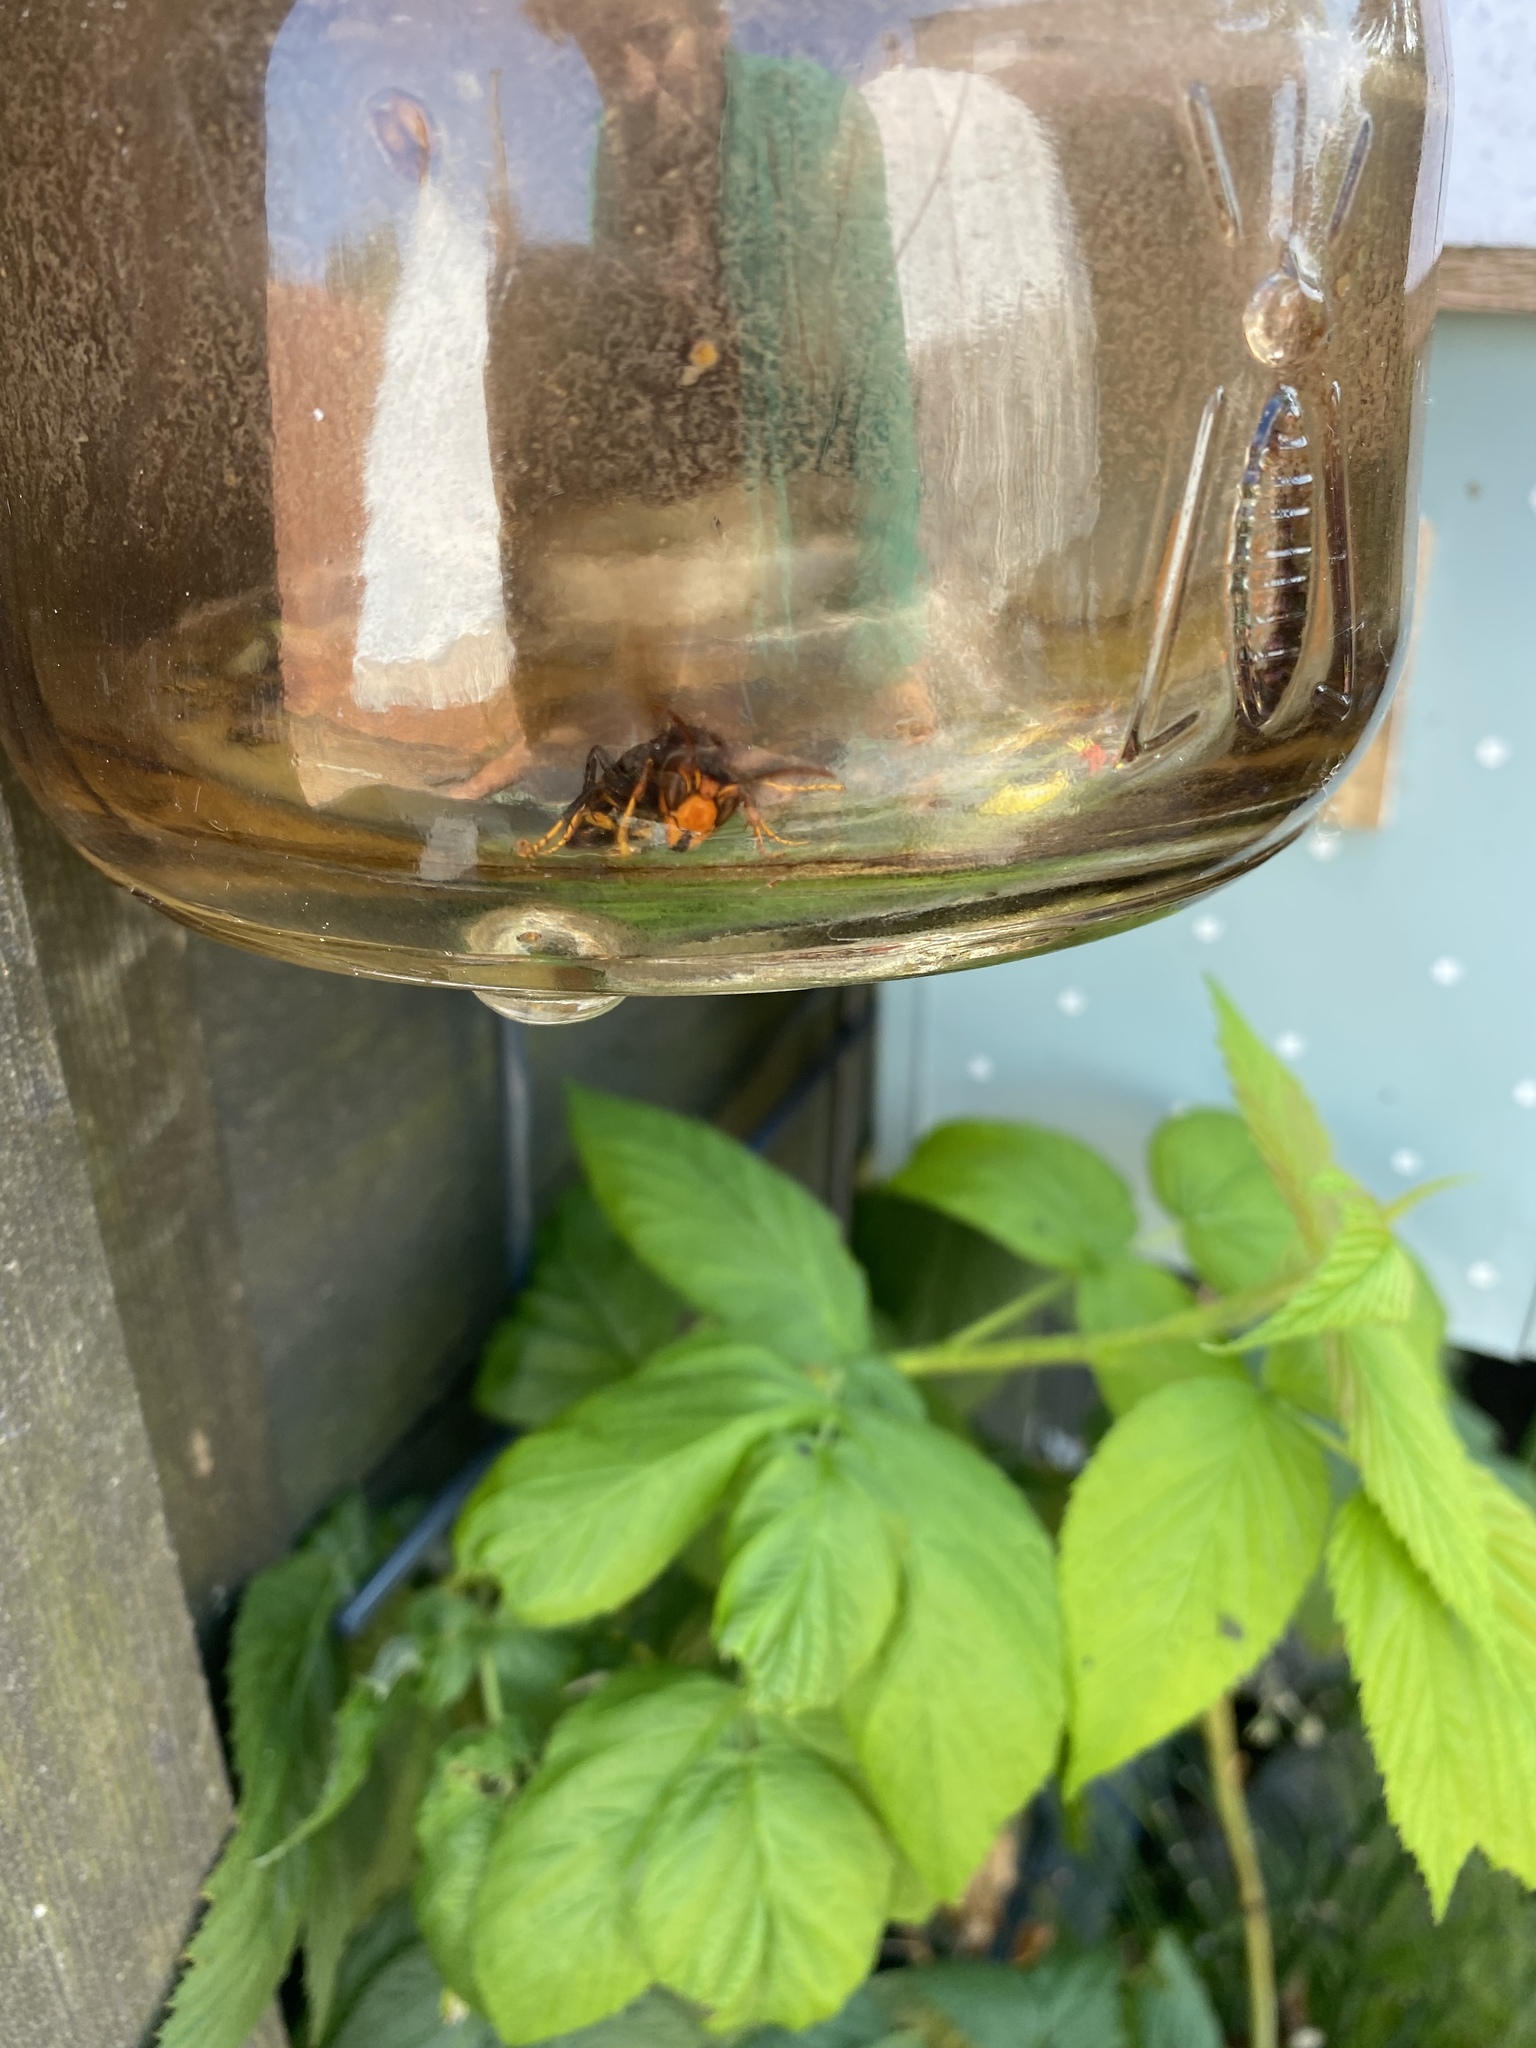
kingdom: Animalia
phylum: Arthropoda
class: Insecta
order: Hymenoptera
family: Vespidae
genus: Vespa
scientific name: Vespa velutina
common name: Asian hornet
